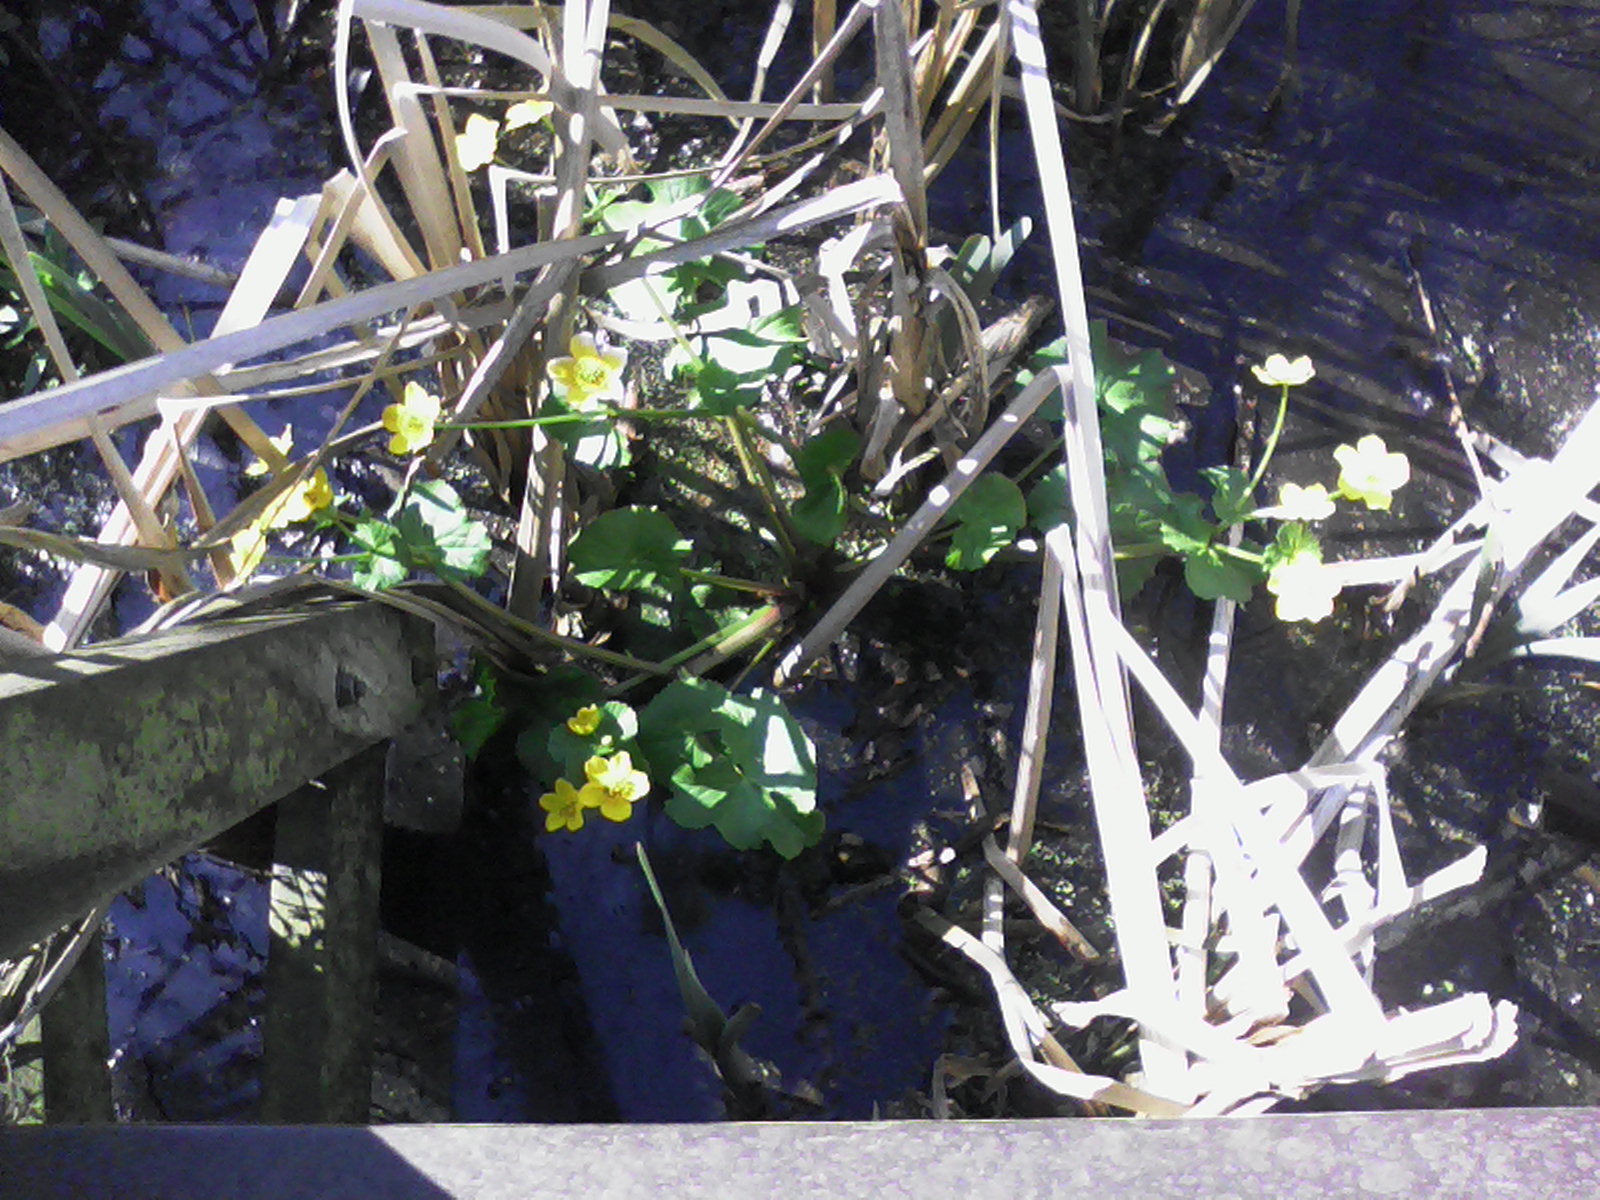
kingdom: Plantae
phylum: Tracheophyta
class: Magnoliopsida
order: Ranunculales
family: Ranunculaceae
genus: Caltha
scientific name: Caltha palustris
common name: Marsh marigold
